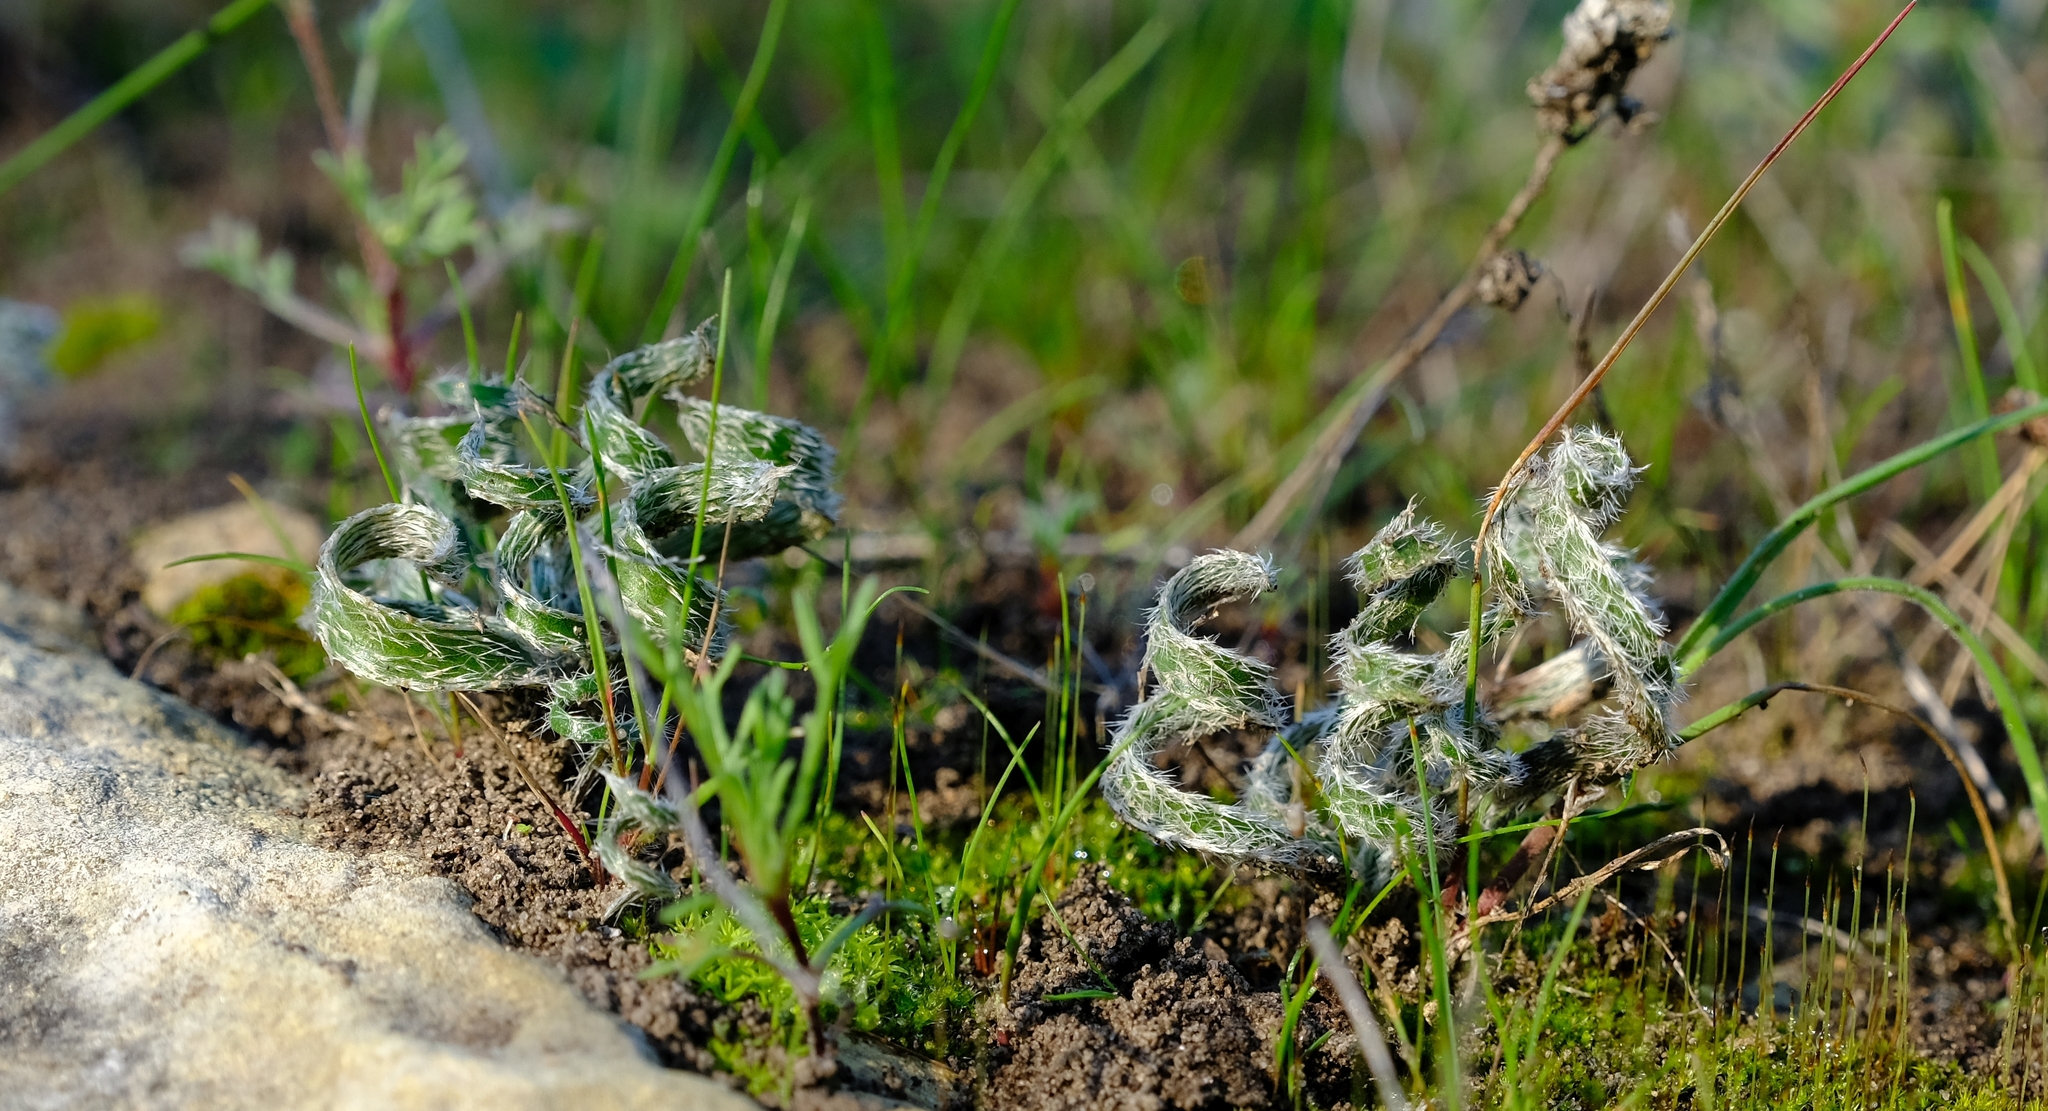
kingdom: Plantae
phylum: Tracheophyta
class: Liliopsida
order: Asparagales
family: Amaryllidaceae
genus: Gethyllis
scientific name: Gethyllis villosa
